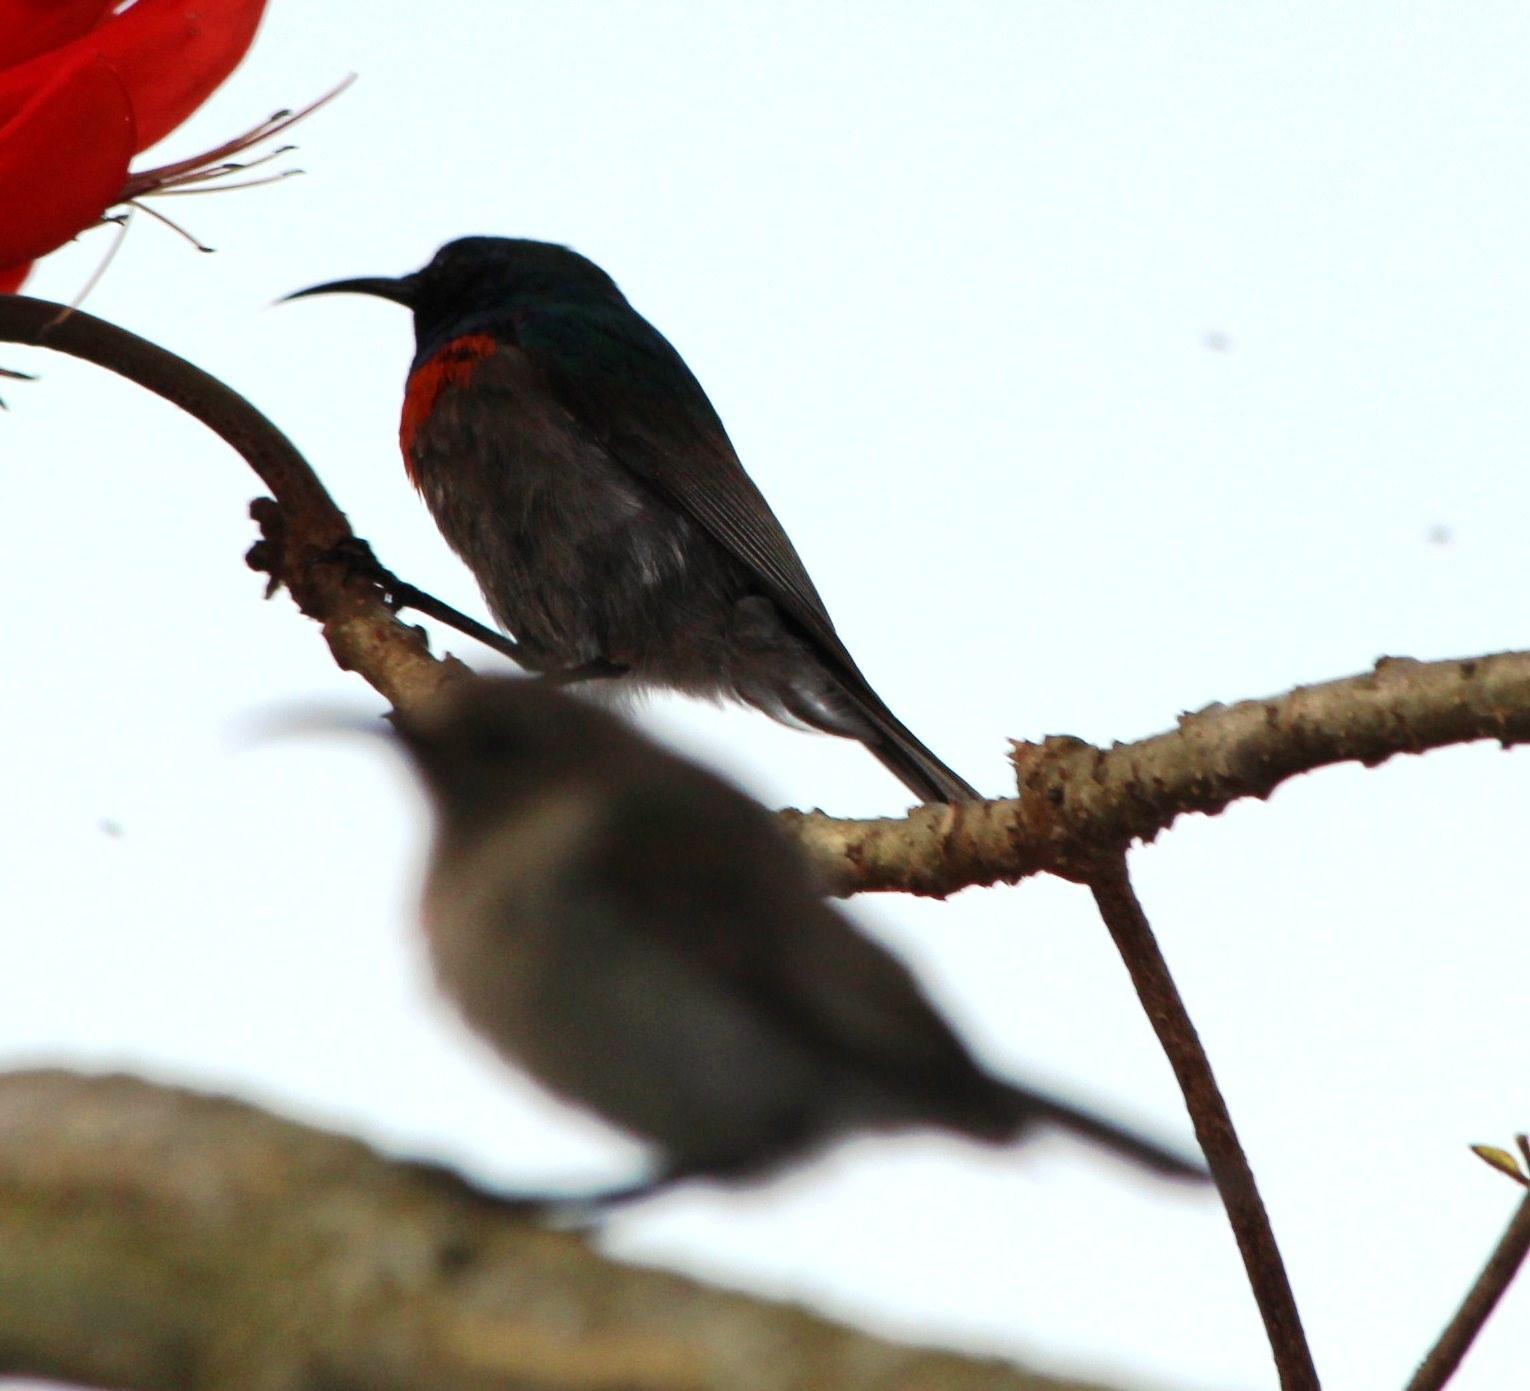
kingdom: Animalia
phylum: Chordata
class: Aves
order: Passeriformes
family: Nectariniidae
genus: Cinnyris
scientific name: Cinnyris chalybeus
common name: Southern double-collared sunbird
